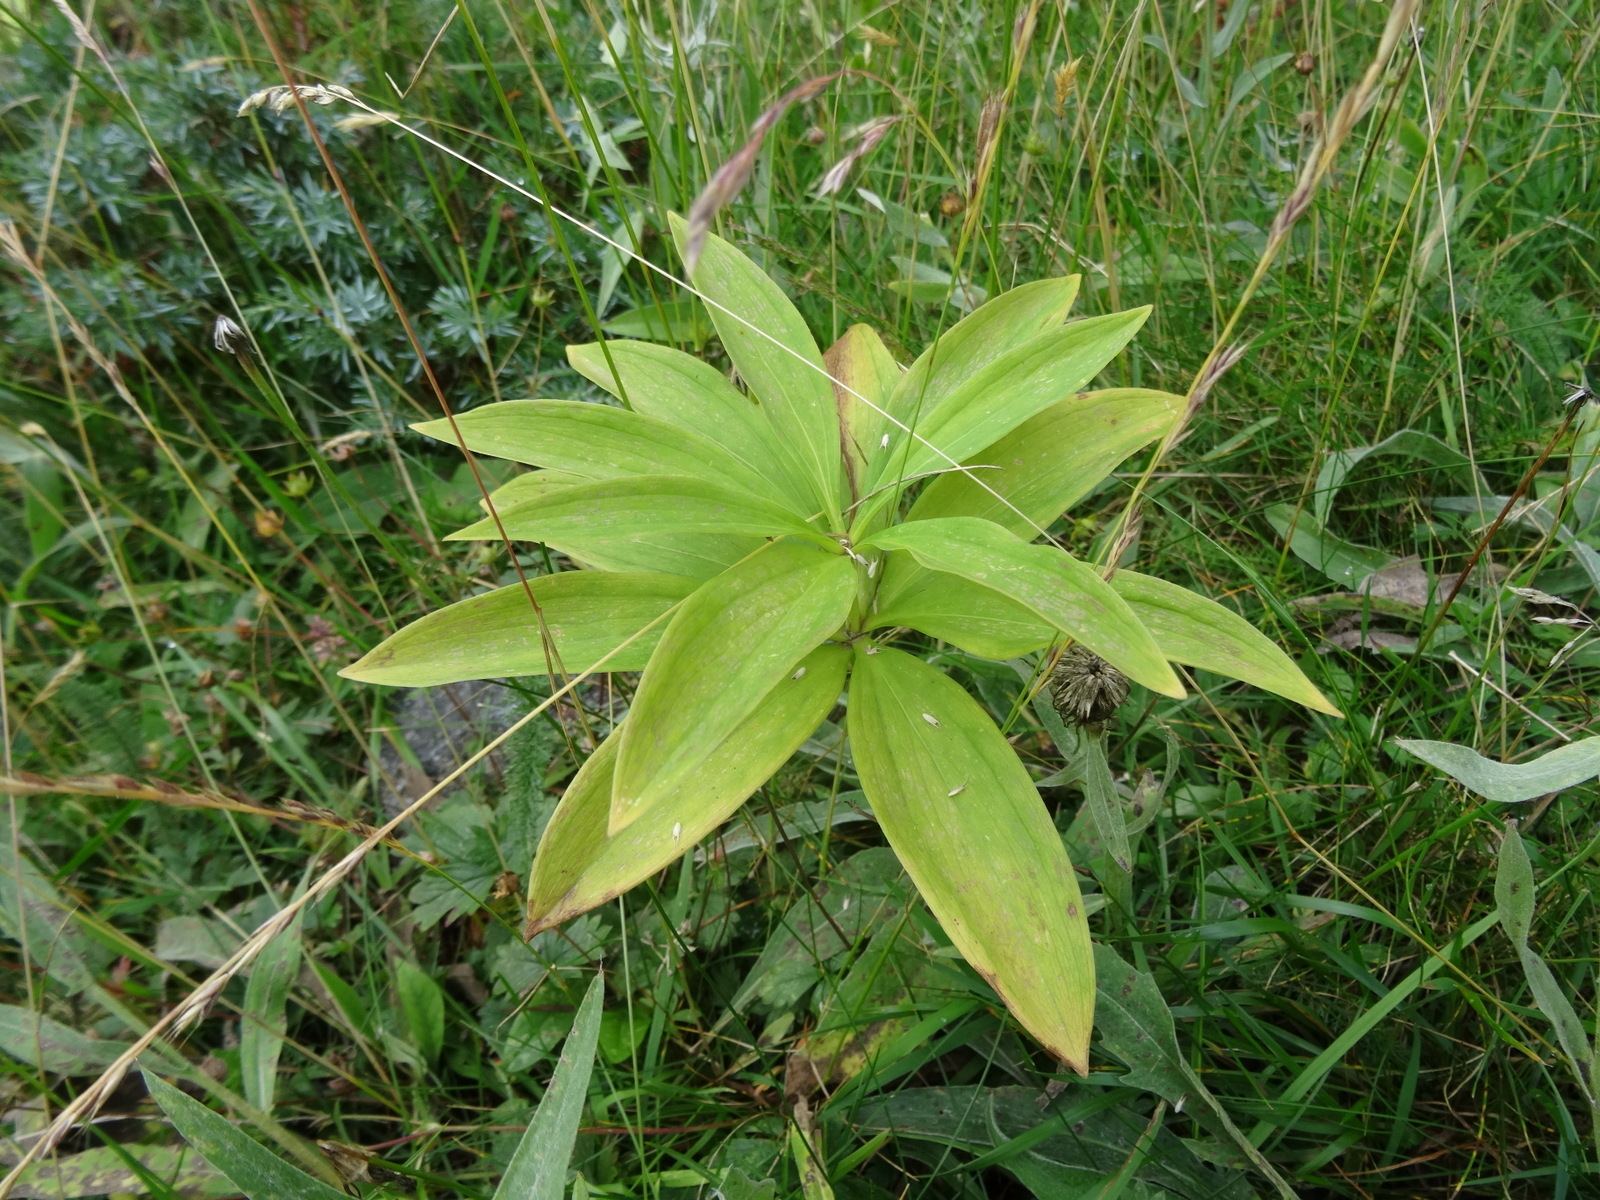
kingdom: Plantae
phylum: Tracheophyta
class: Liliopsida
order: Liliales
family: Liliaceae
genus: Lilium
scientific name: Lilium martagon
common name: Martagon lily
